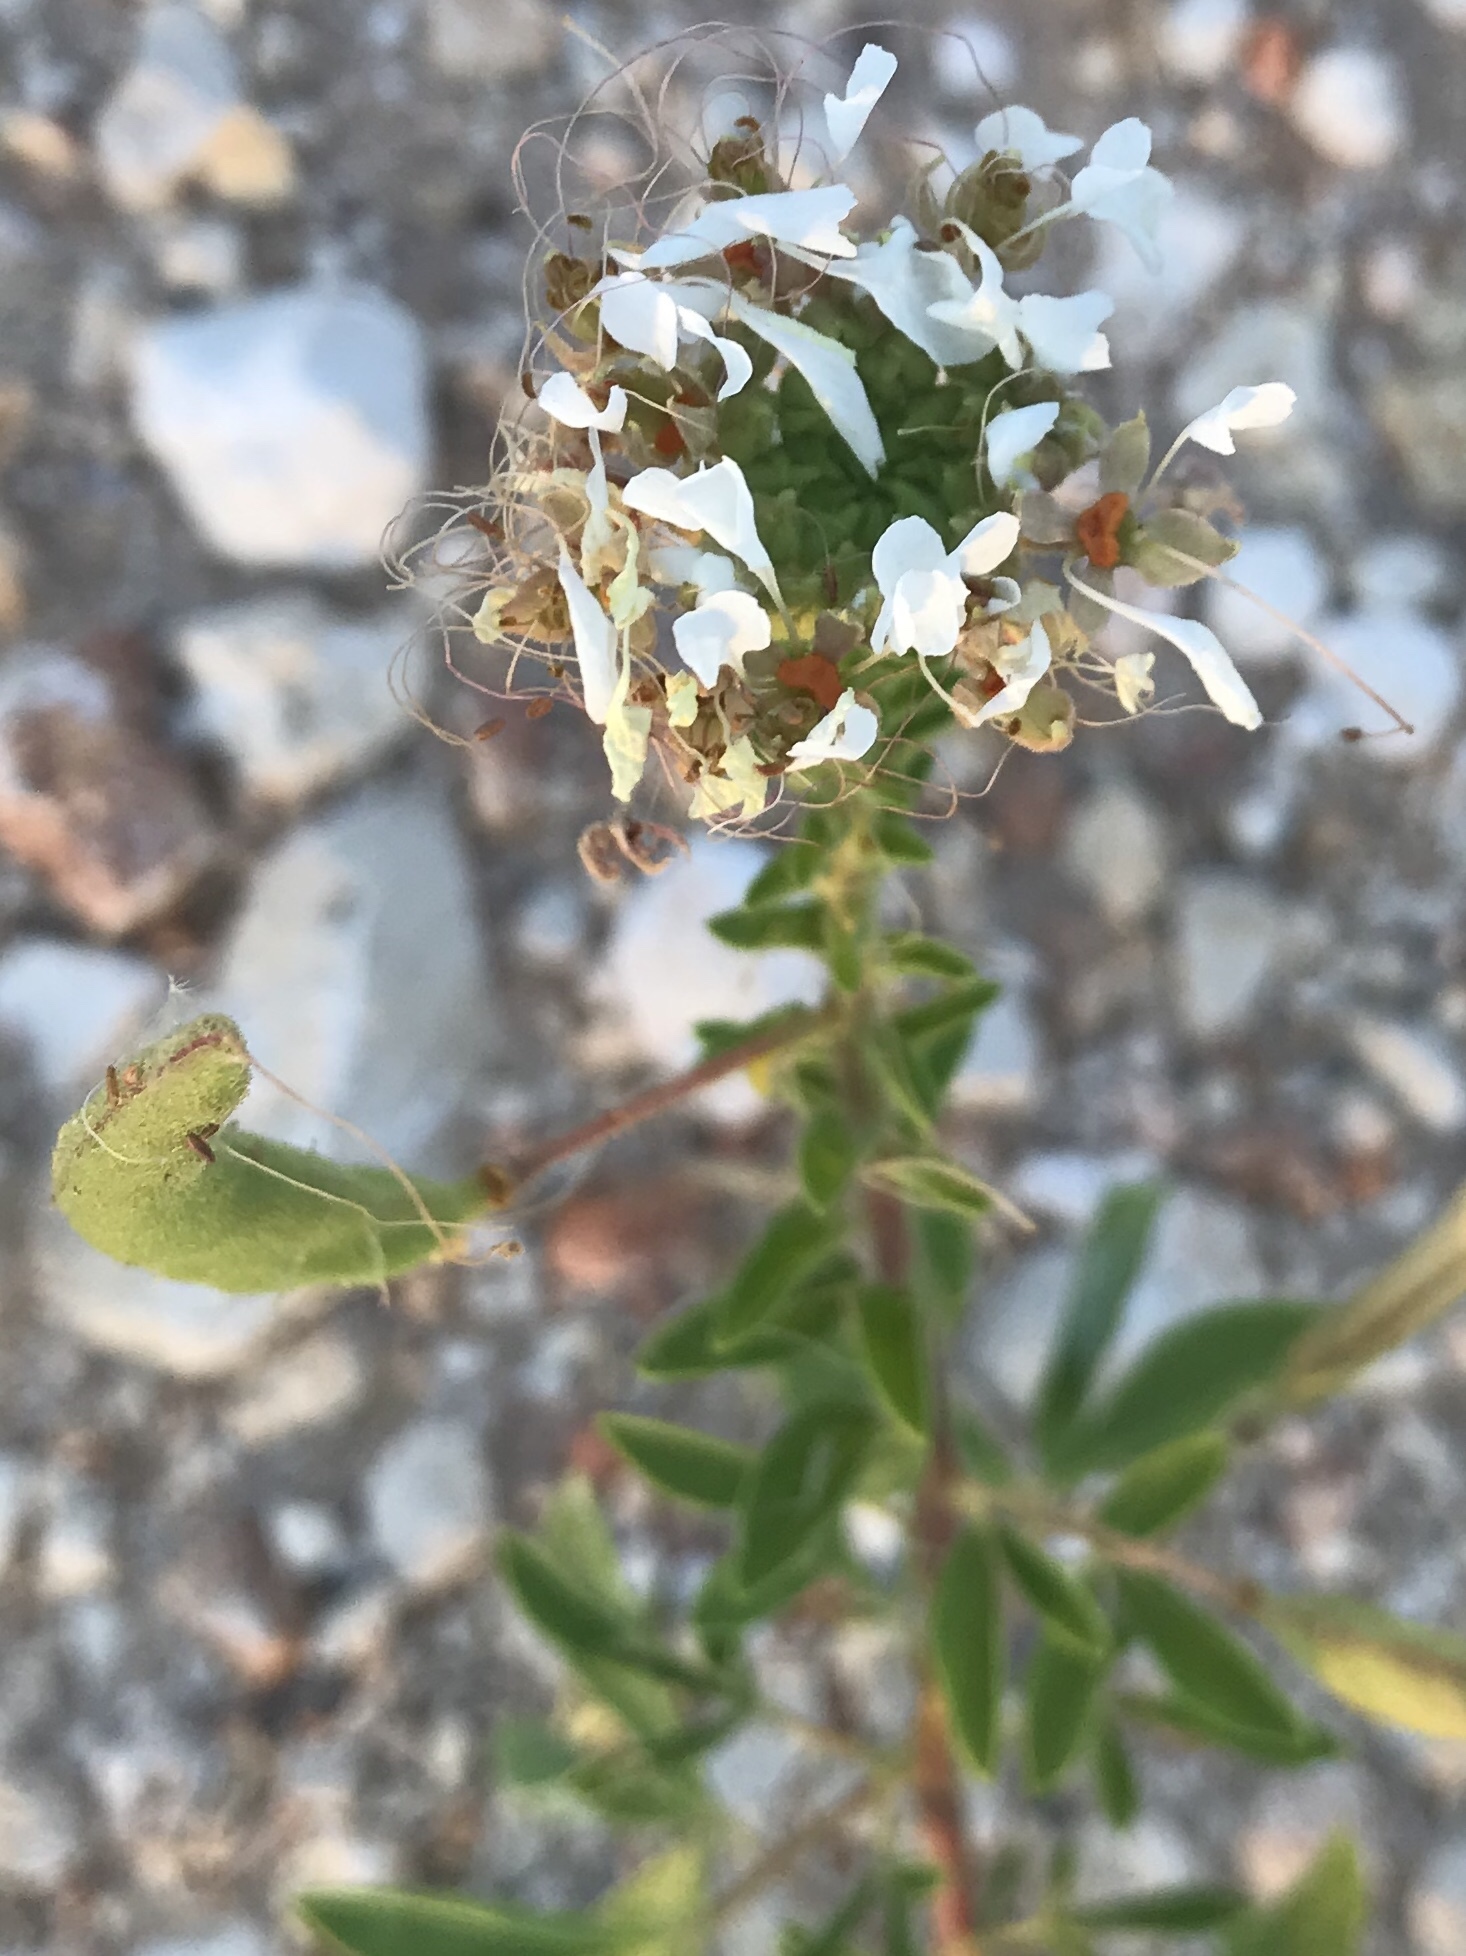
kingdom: Plantae
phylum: Tracheophyta
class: Magnoliopsida
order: Brassicales
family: Cleomaceae
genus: Polanisia
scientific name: Polanisia dodecandra
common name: Clammyweed
